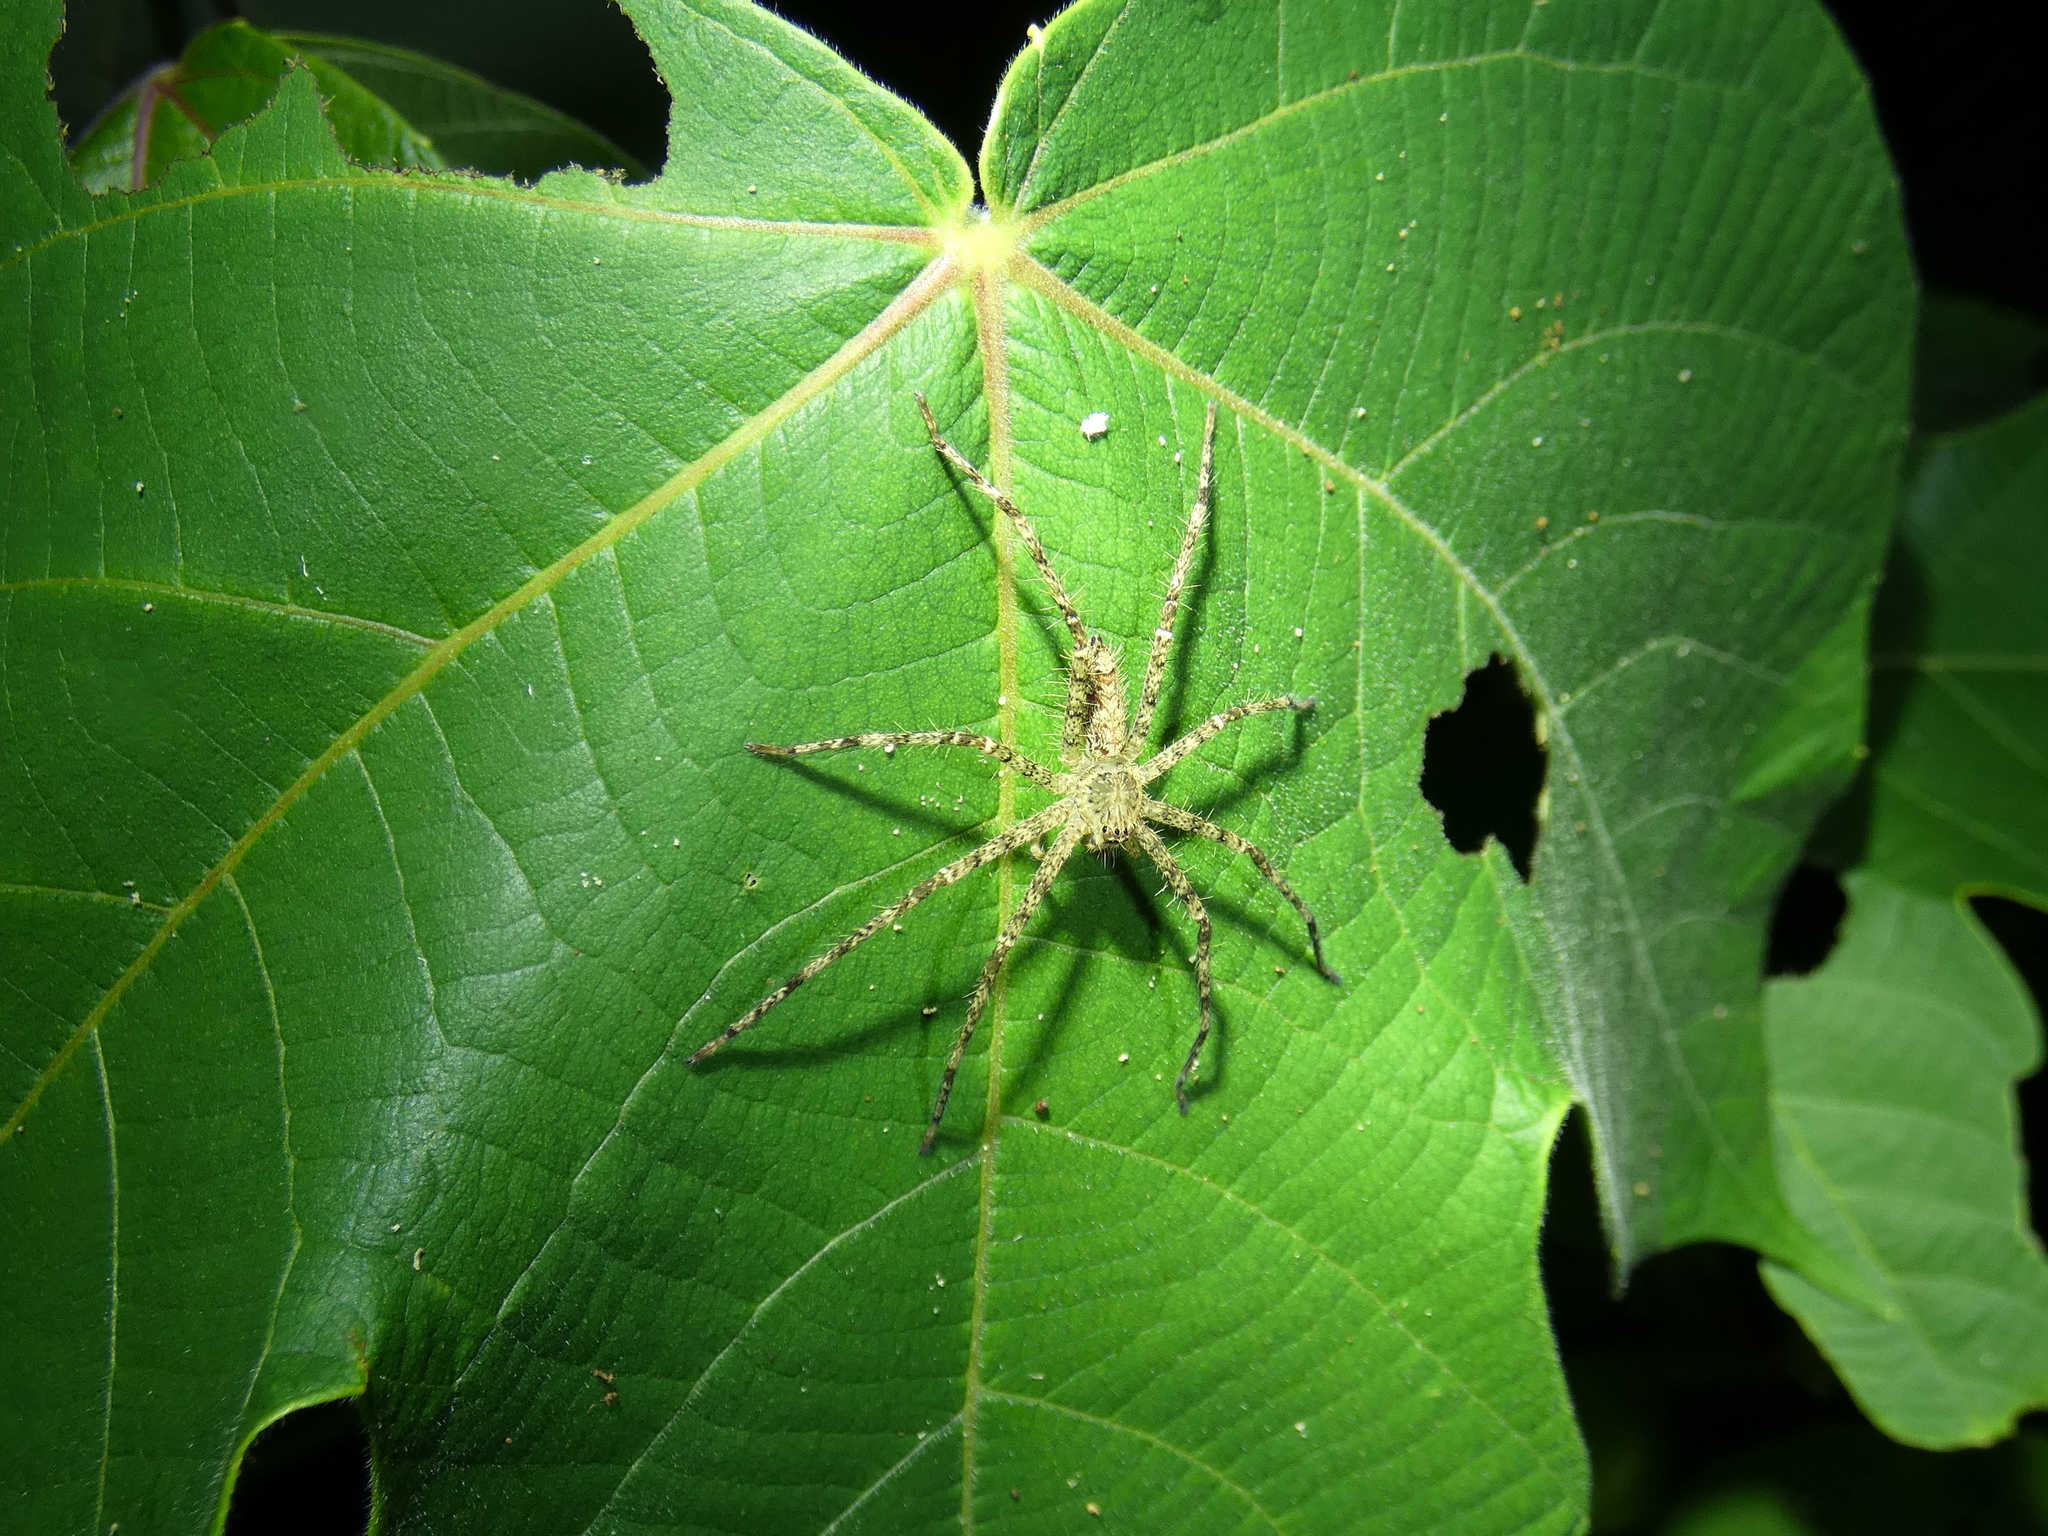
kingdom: Animalia
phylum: Arthropoda
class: Arachnida
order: Araneae
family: Sparassidae
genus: Heteropoda
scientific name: Heteropoda boiei
